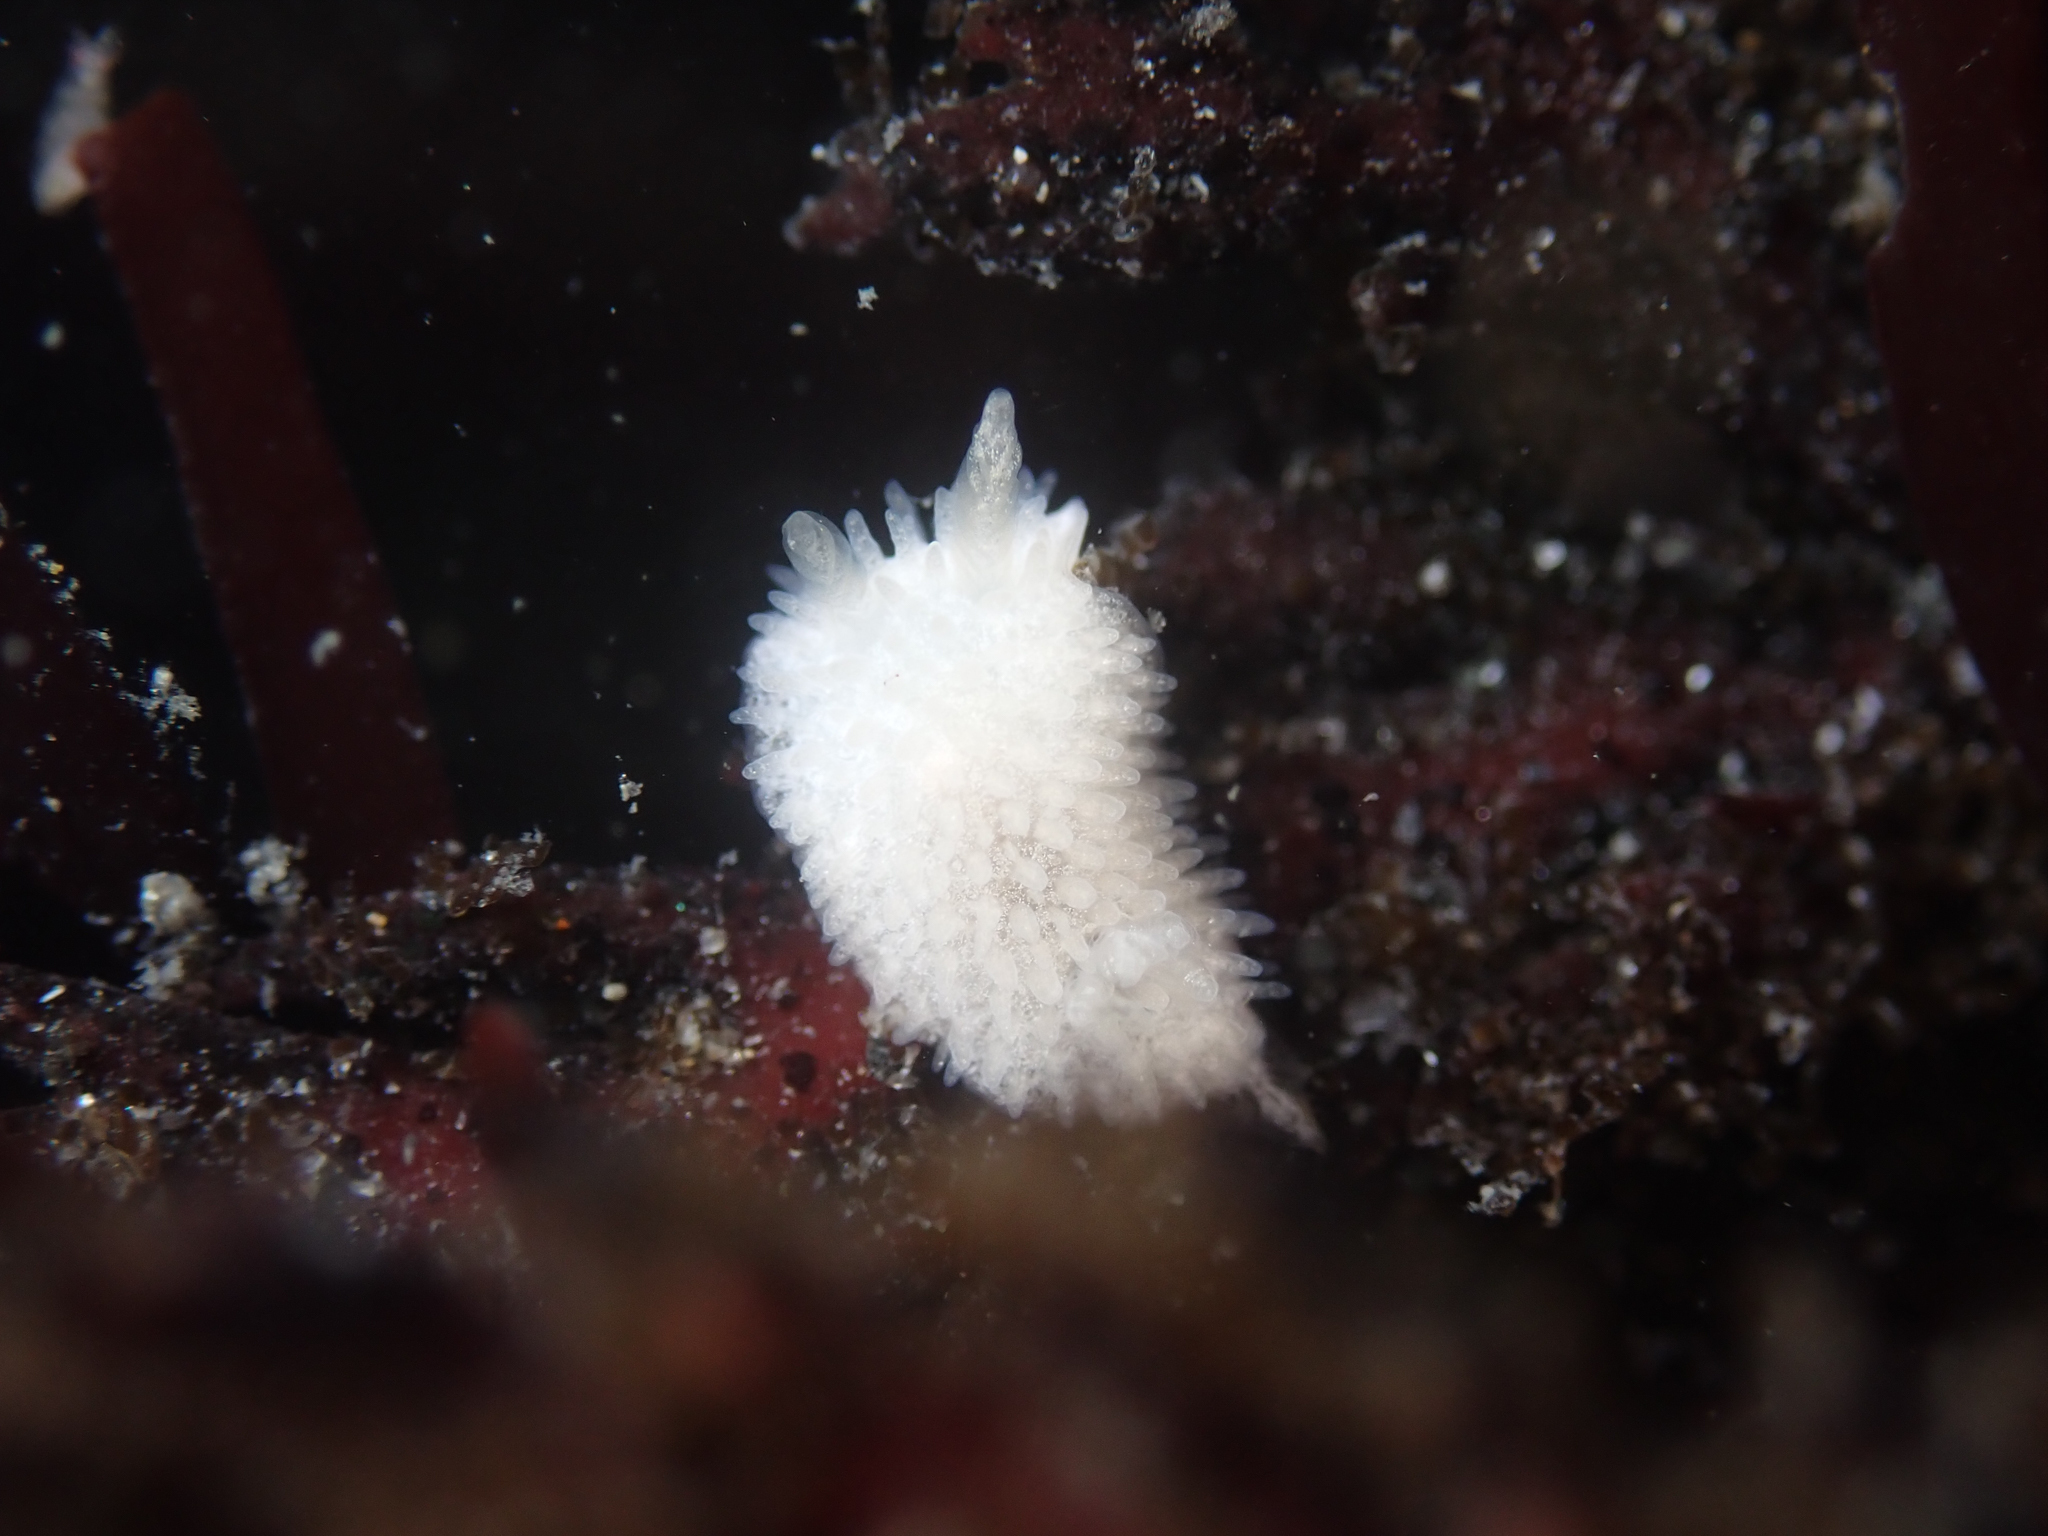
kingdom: Animalia
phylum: Mollusca
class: Gastropoda
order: Nudibranchia
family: Calycidorididae
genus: Diaphorodoris
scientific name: Diaphorodoris lirulatocauda
